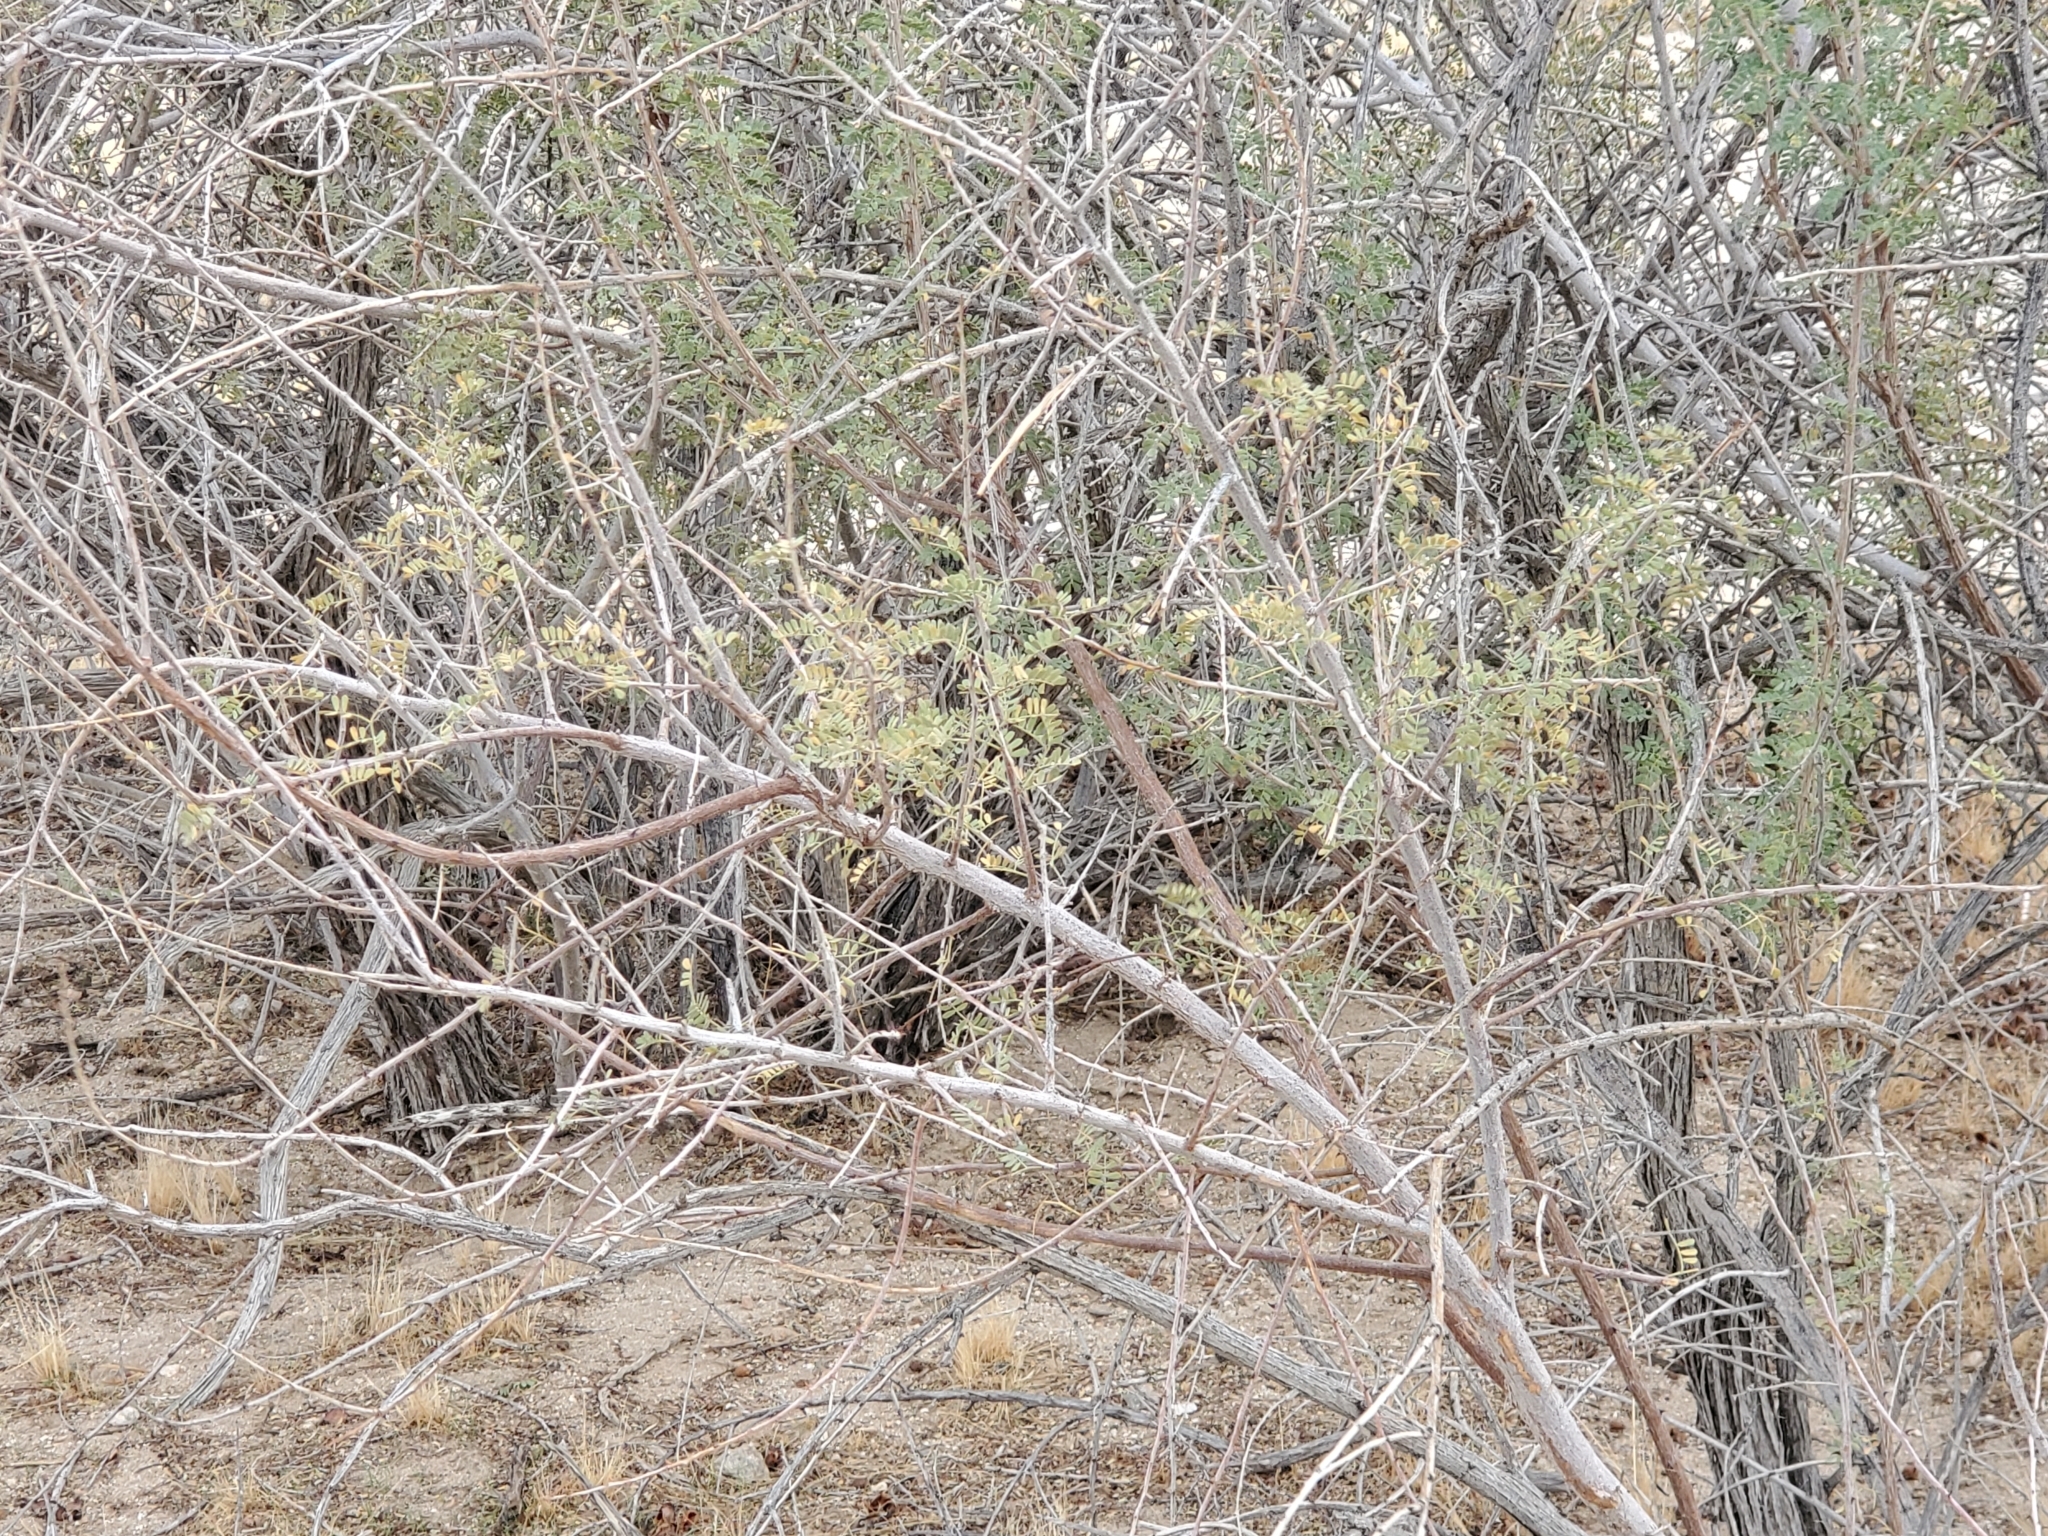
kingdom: Plantae
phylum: Tracheophyta
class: Magnoliopsida
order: Fabales
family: Fabaceae
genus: Senegalia
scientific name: Senegalia greggii
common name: Texas-mimosa
